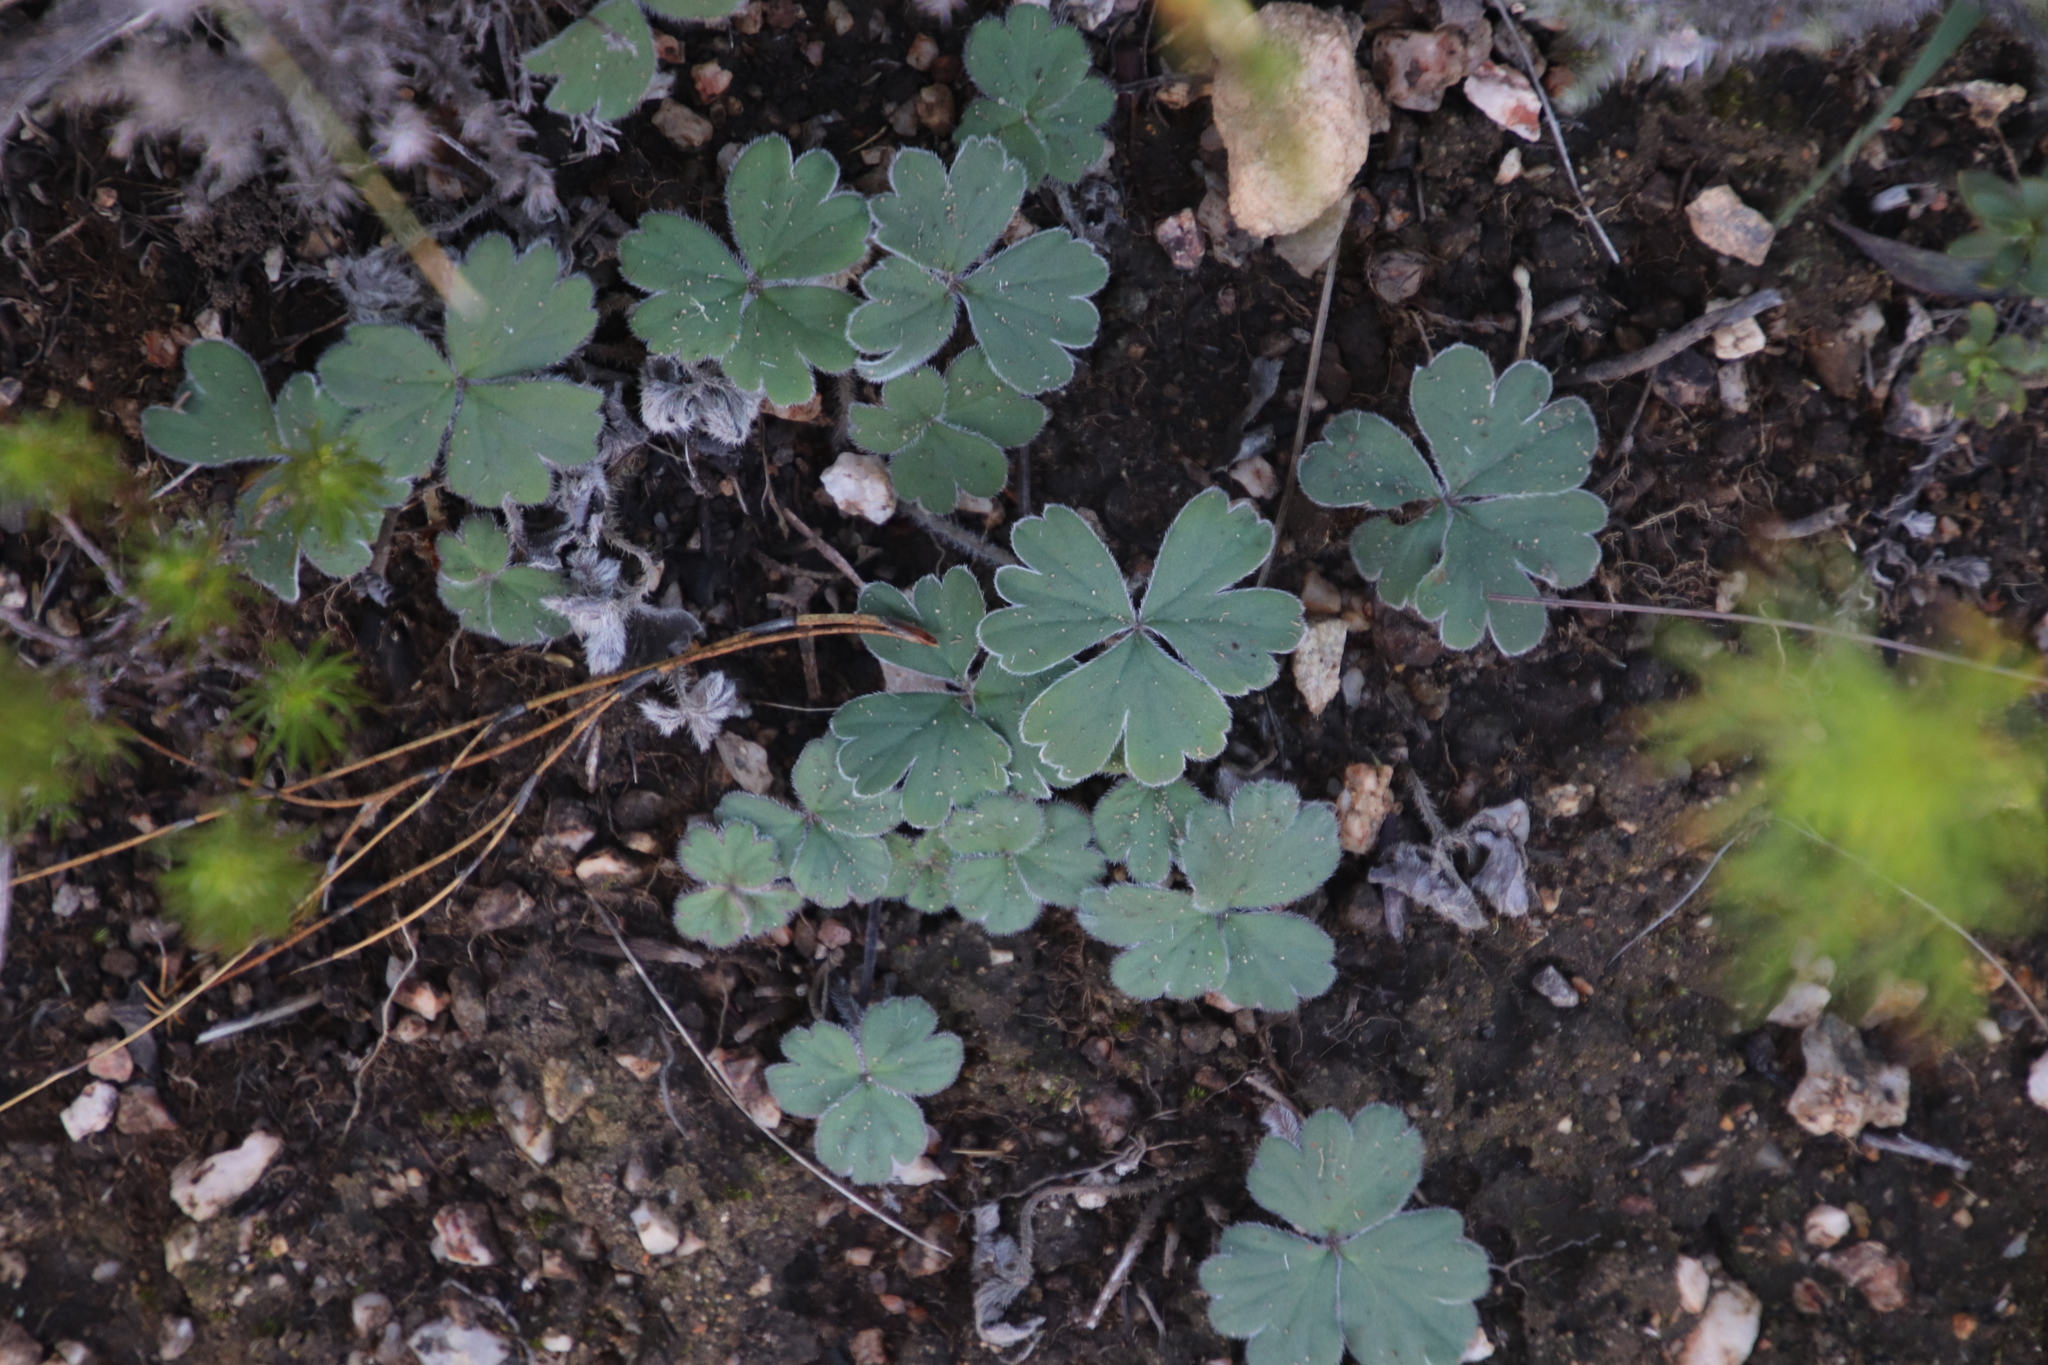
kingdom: Plantae
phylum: Tracheophyta
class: Magnoliopsida
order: Geraniales
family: Geraniaceae
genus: Pelargonium
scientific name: Pelargonium ternifolium
